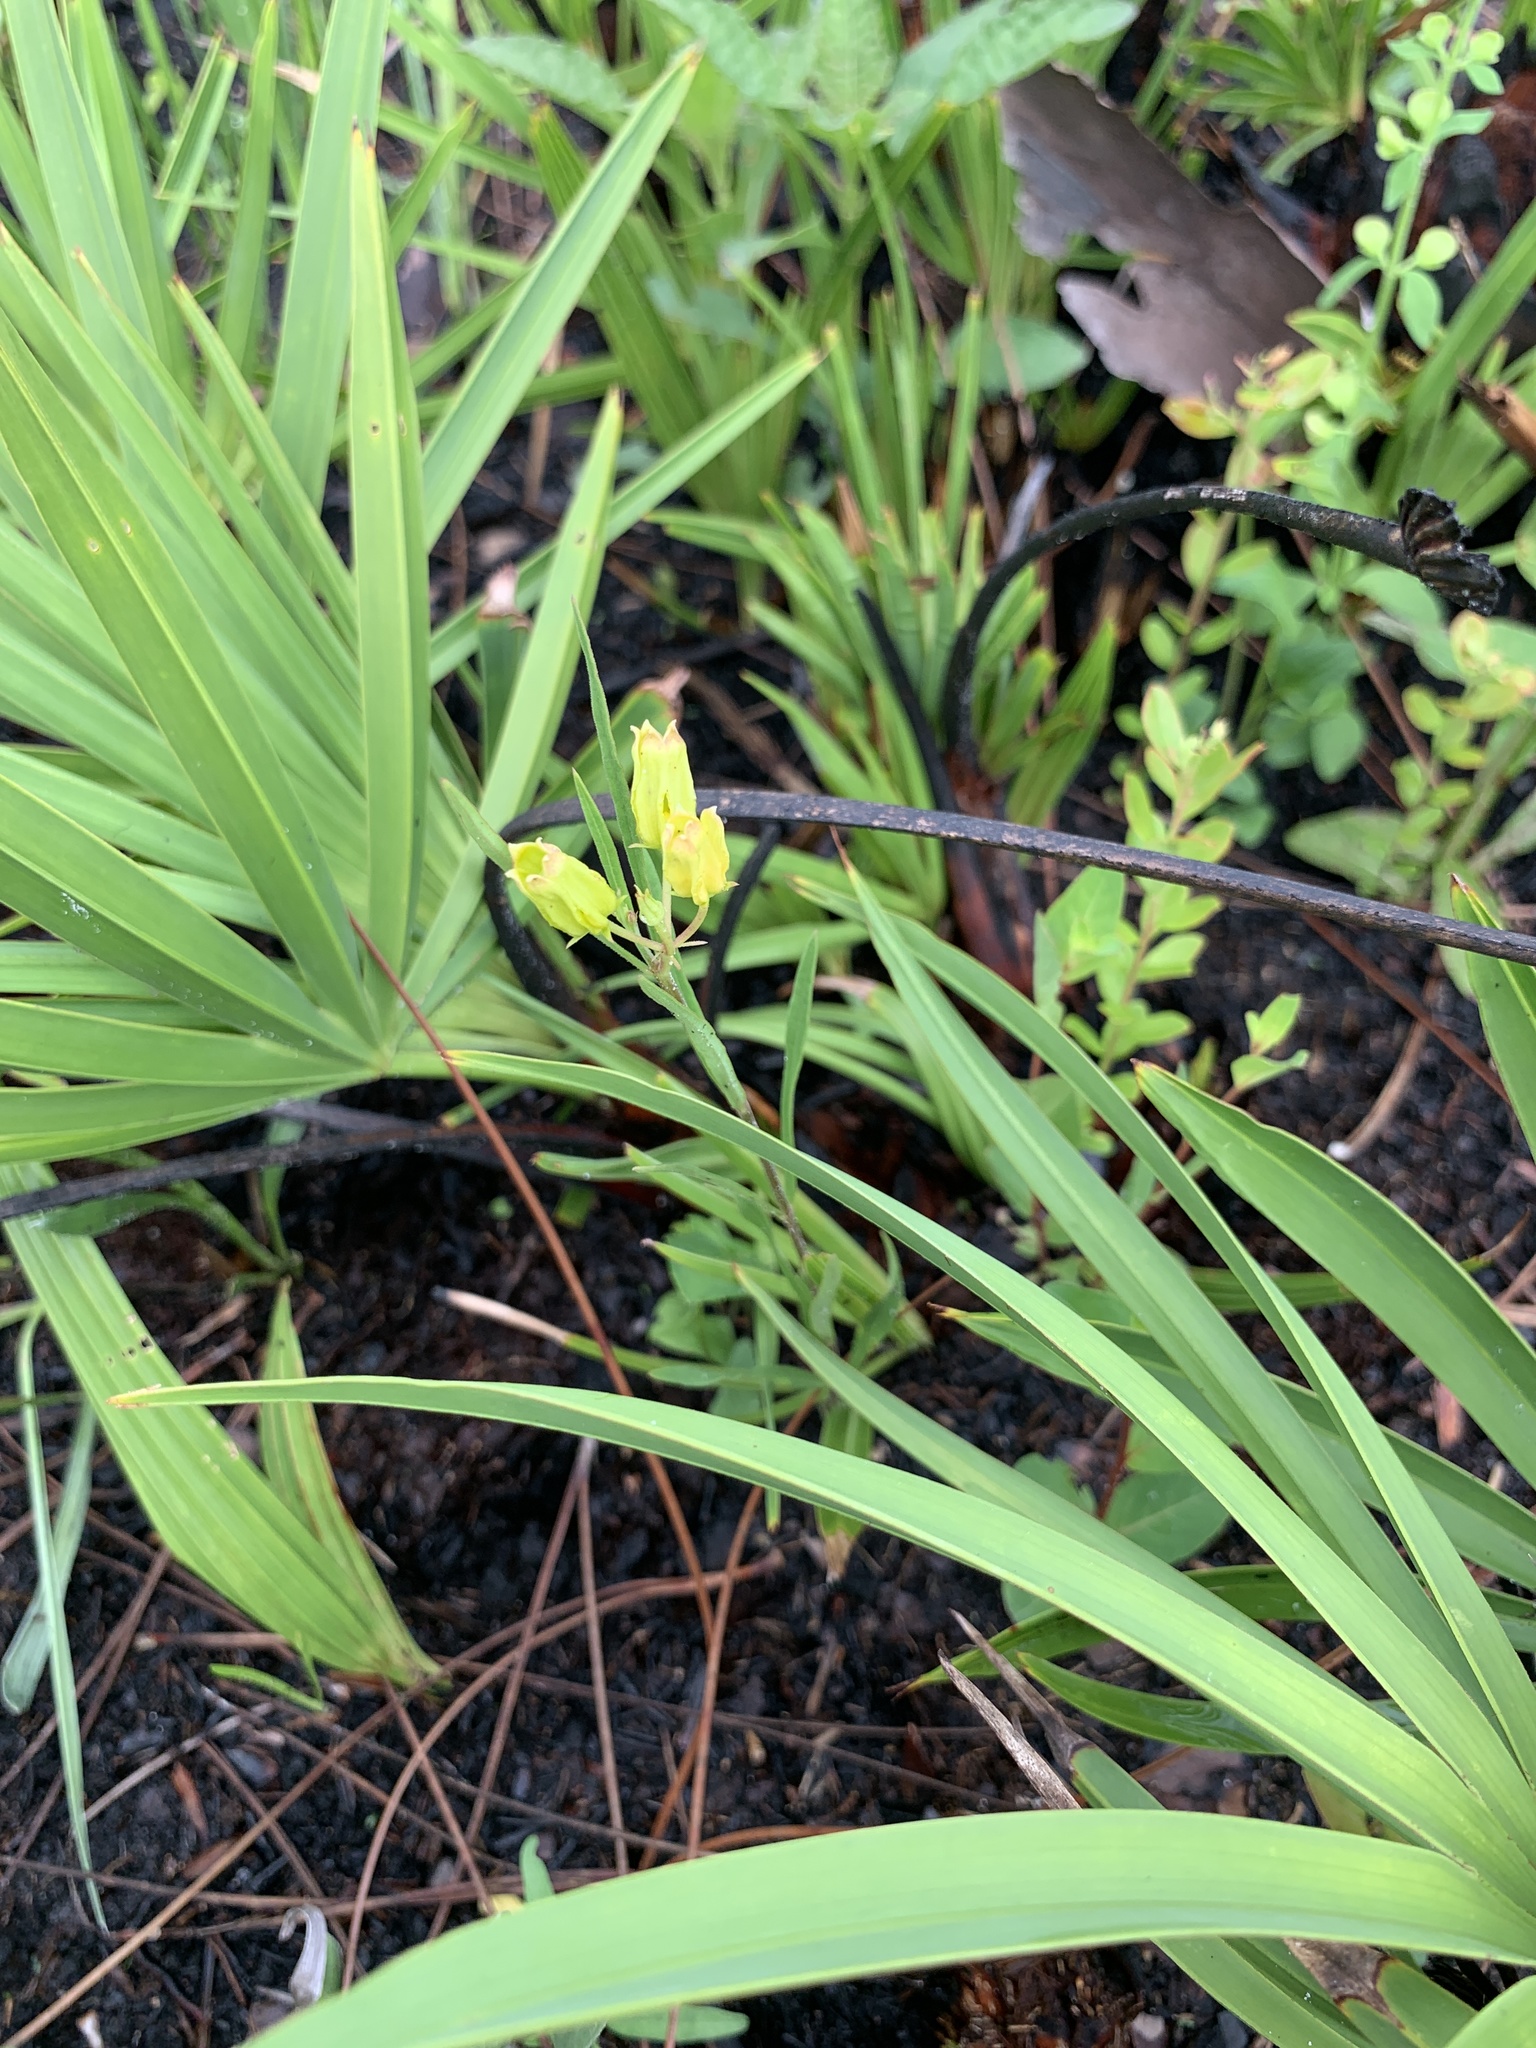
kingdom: Plantae
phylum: Tracheophyta
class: Magnoliopsida
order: Gentianales
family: Apocynaceae
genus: Asclepias
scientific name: Asclepias pedicellata
